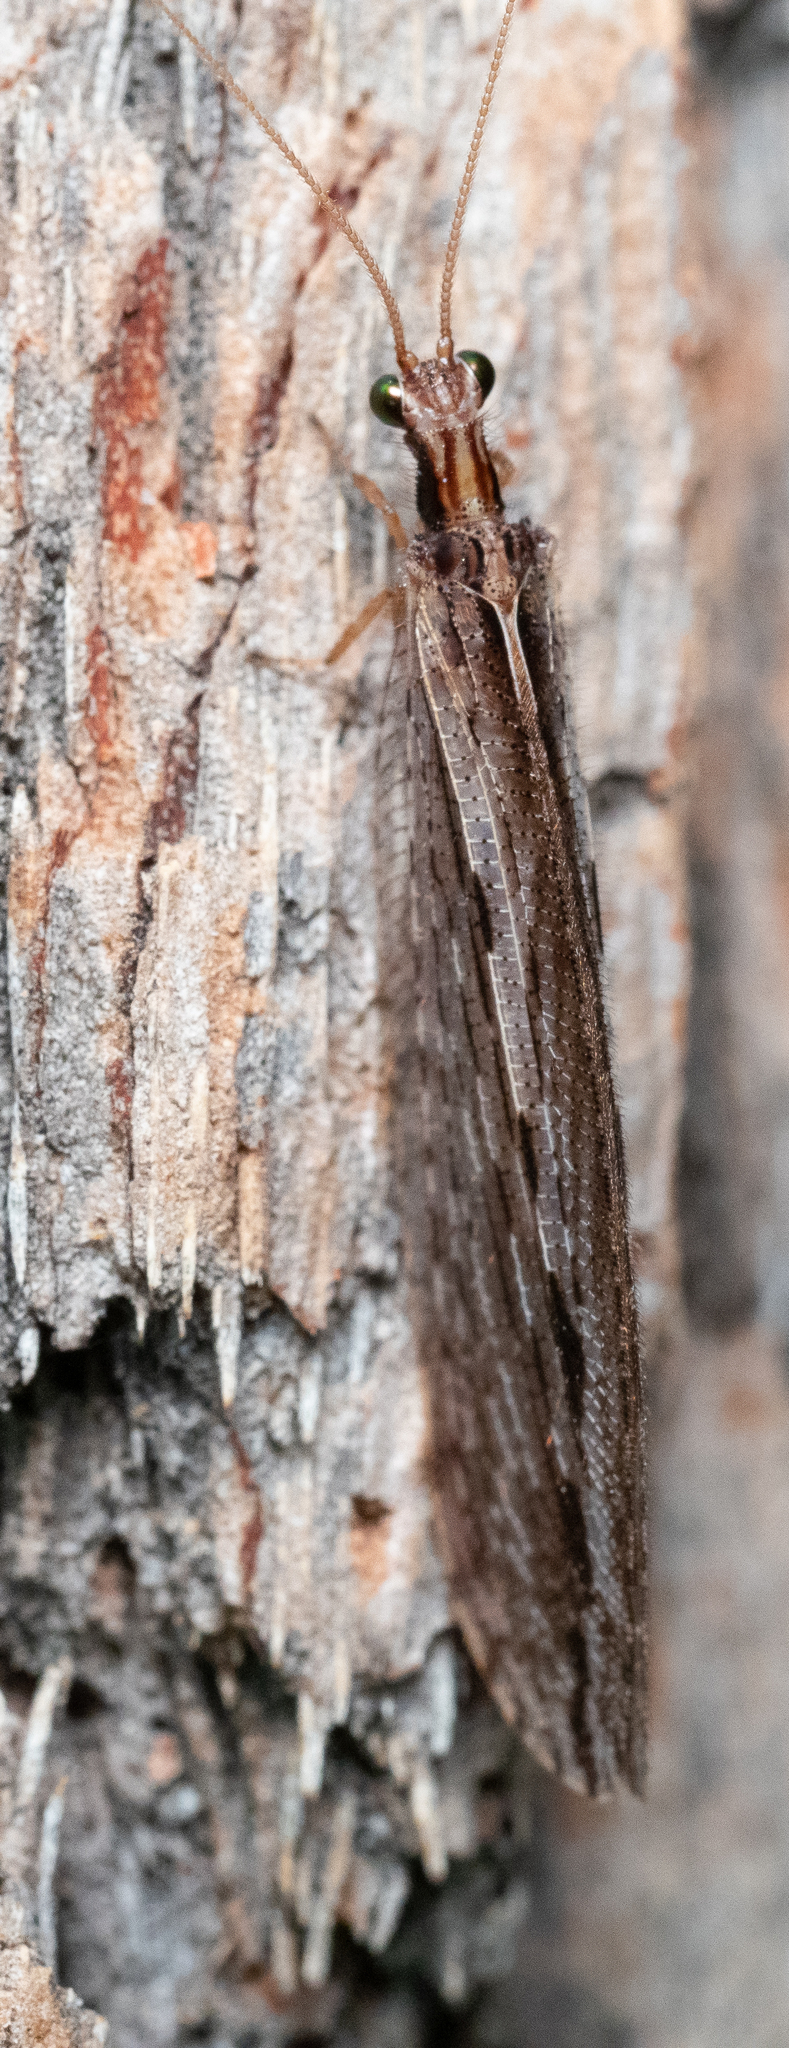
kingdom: Animalia
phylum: Arthropoda
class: Insecta
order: Neuroptera
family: Osmylidae
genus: Stenosmylus
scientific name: Stenosmylus stenopterus
